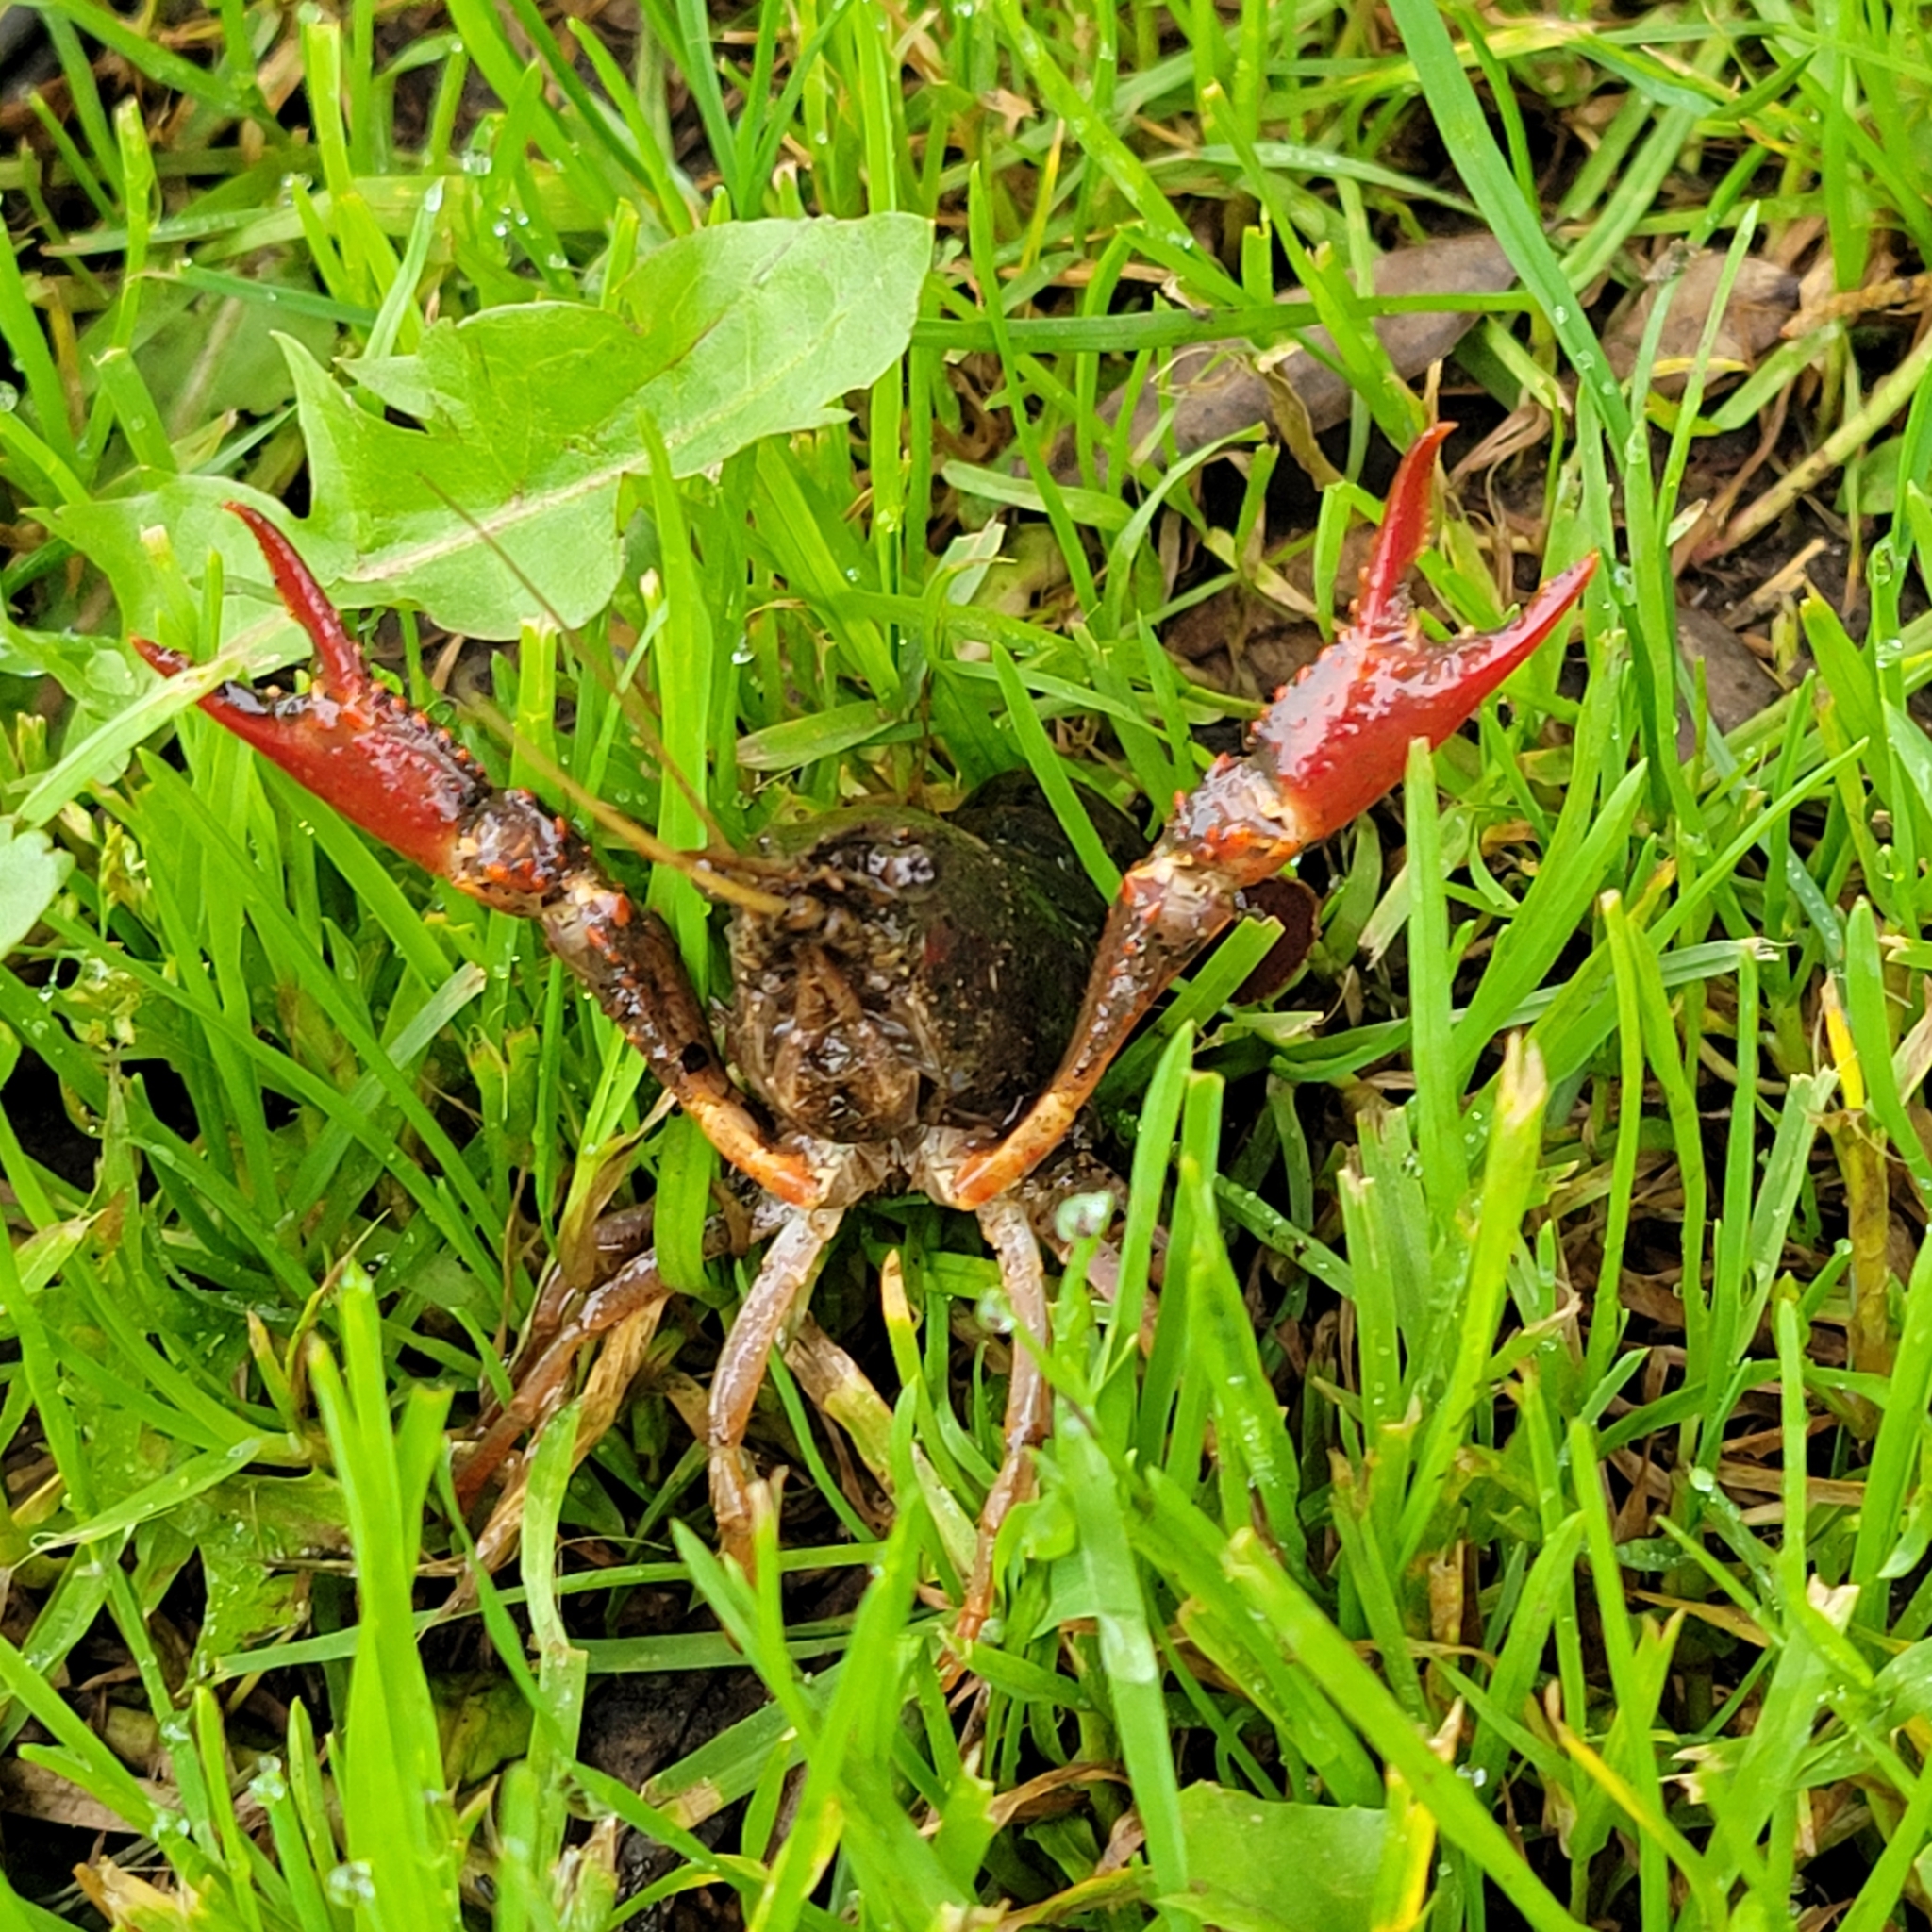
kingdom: Animalia
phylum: Arthropoda
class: Malacostraca
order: Decapoda
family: Cambaridae
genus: Procambarus
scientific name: Procambarus clarkii
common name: Red swamp crayfish
